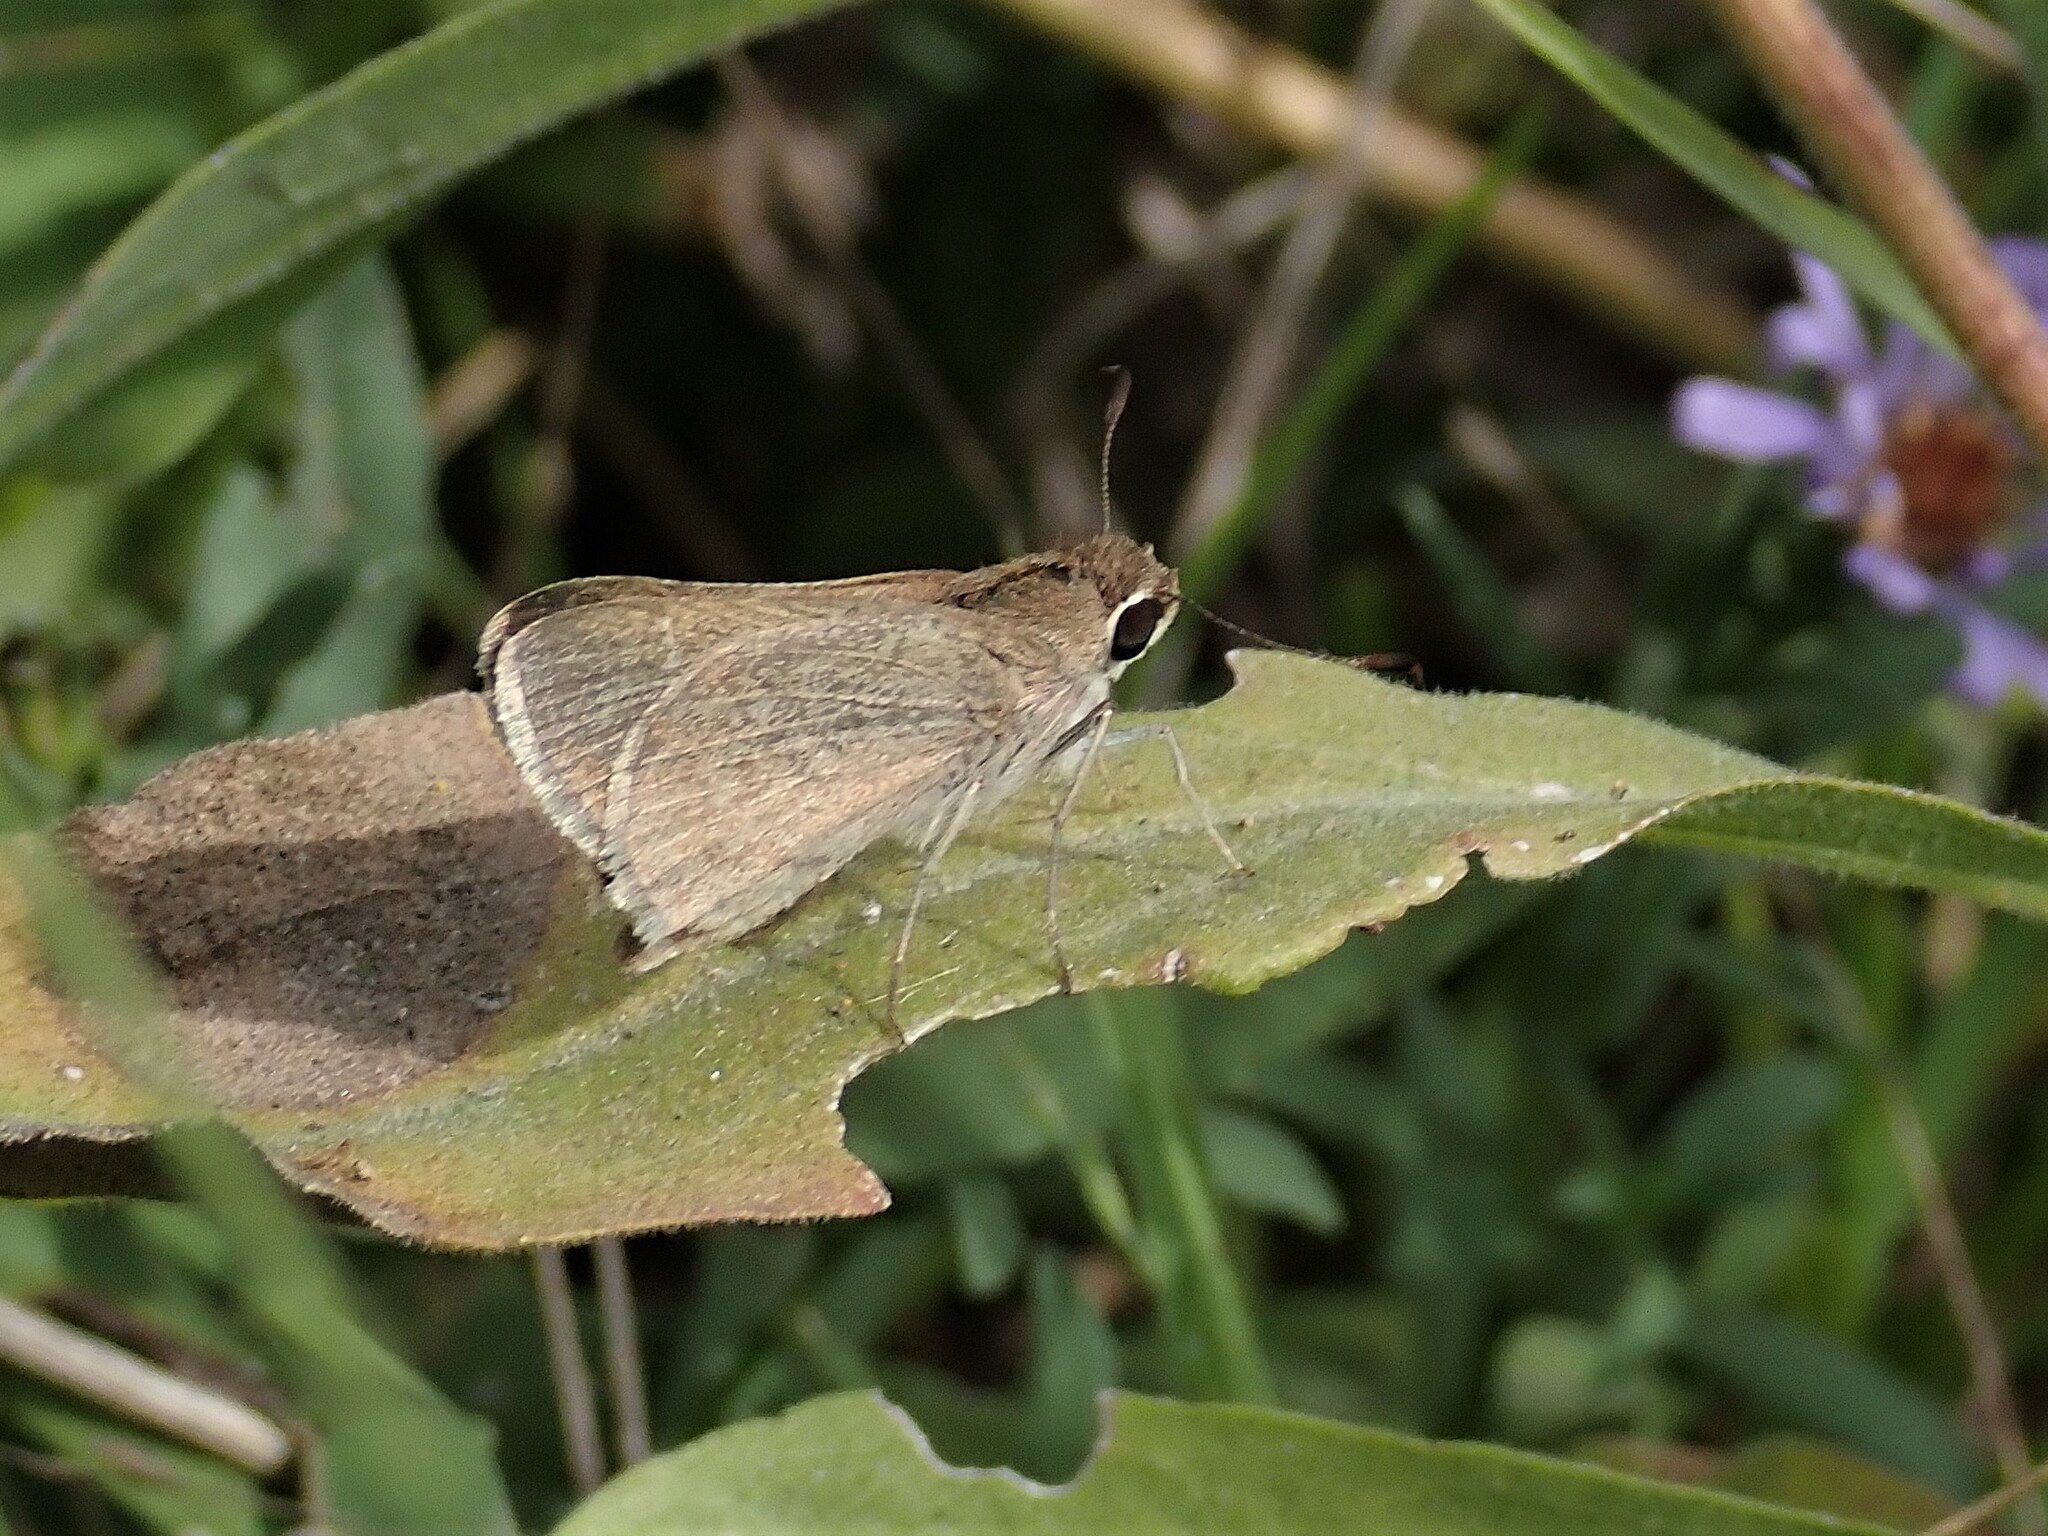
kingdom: Animalia
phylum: Arthropoda
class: Insecta
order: Lepidoptera
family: Hesperiidae
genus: Lerodea
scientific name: Lerodea eufala
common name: Eufala skipper
